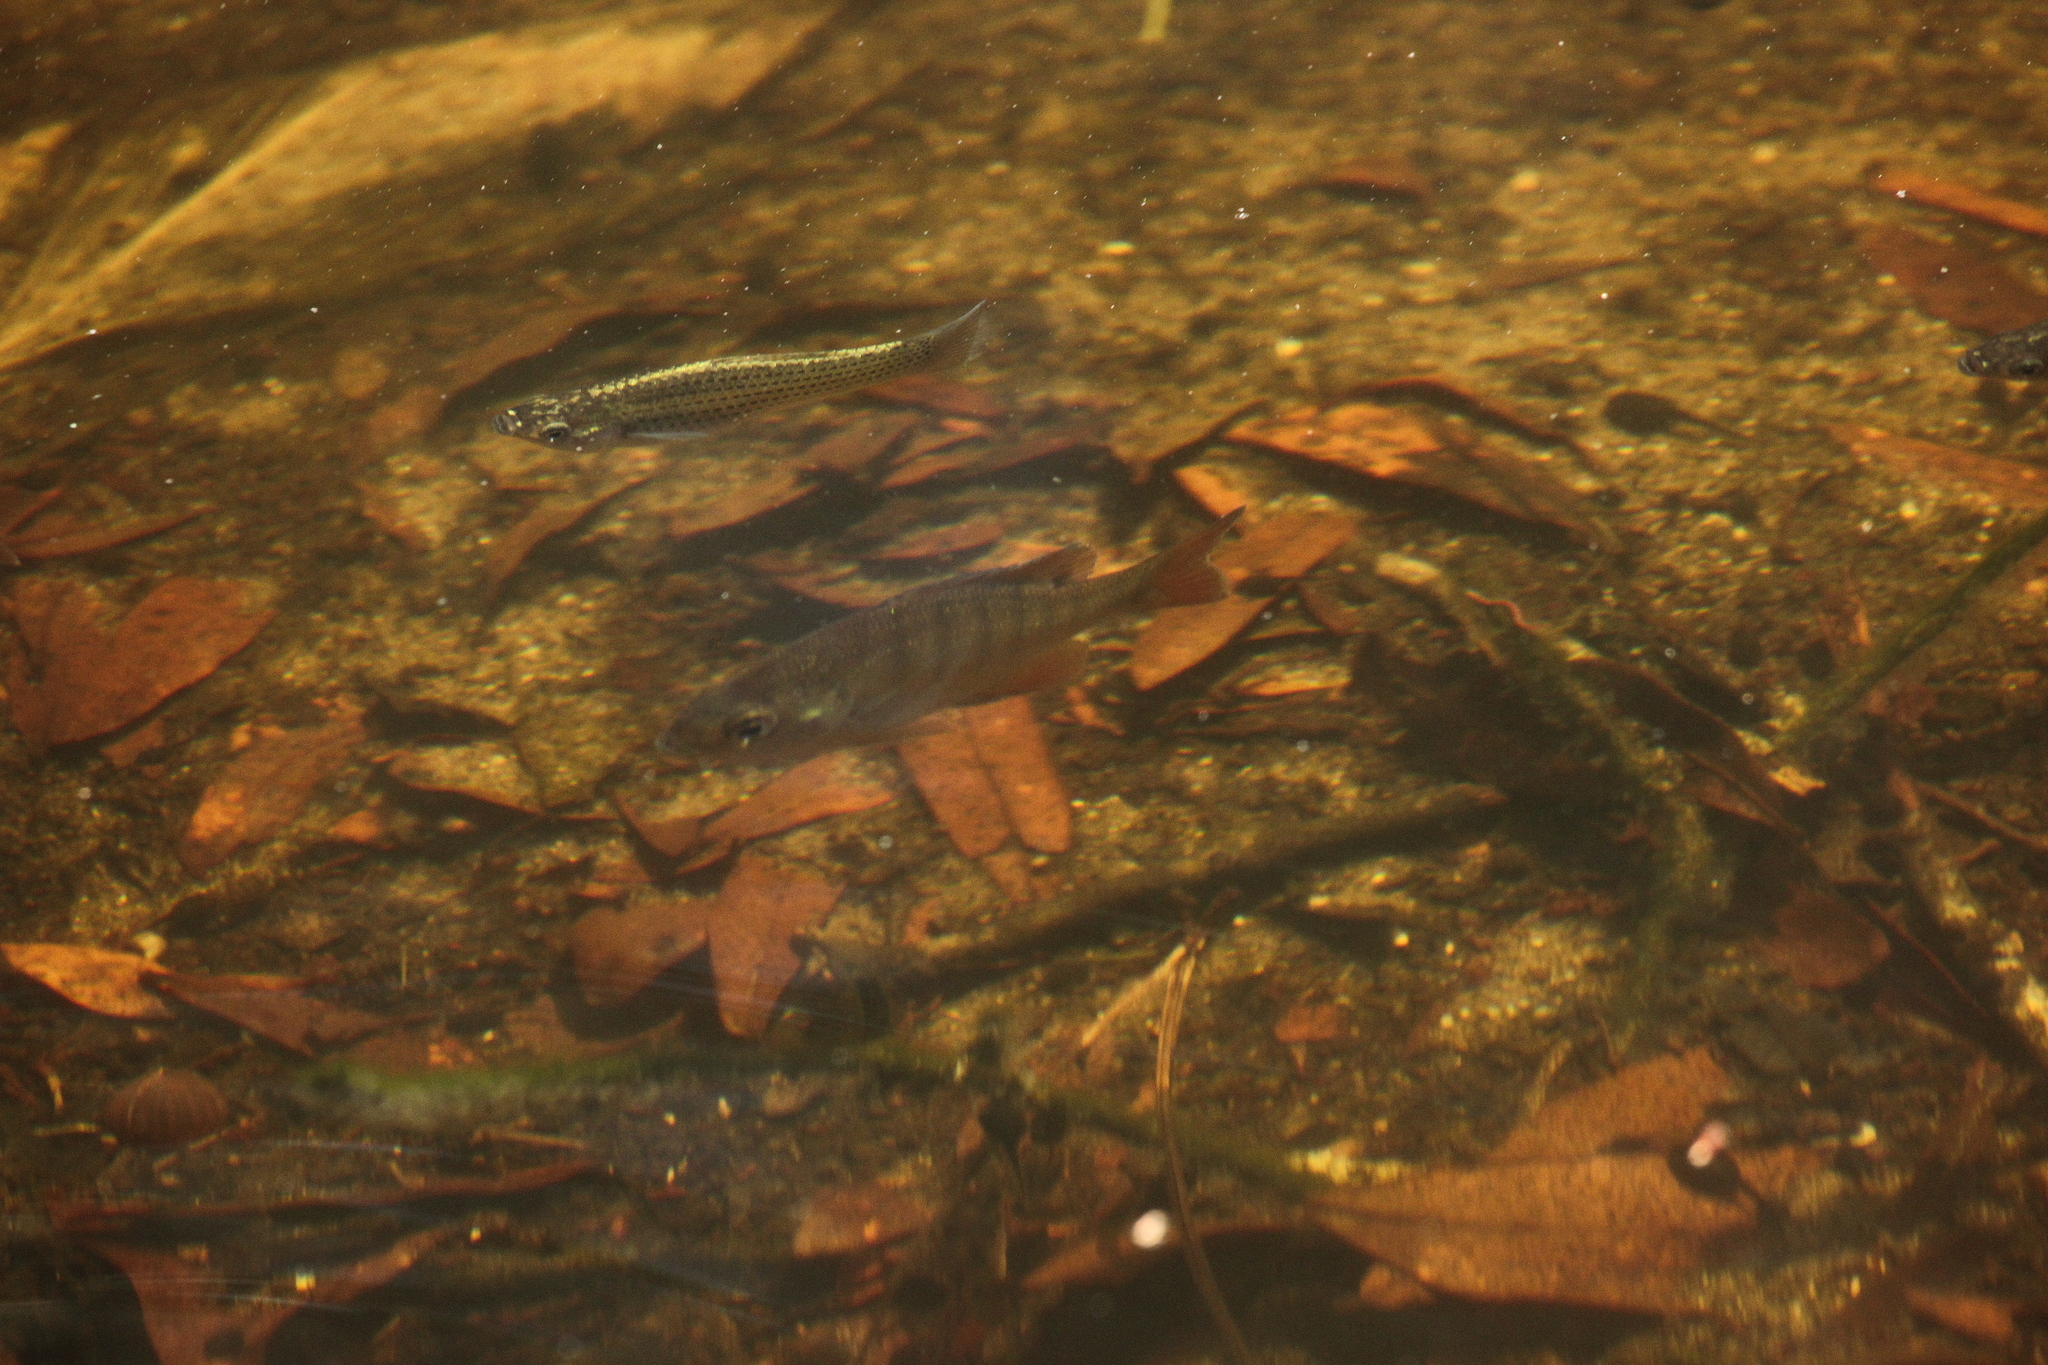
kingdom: Animalia
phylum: Chordata
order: Perciformes
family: Centrarchidae
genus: Lepomis
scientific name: Lepomis macrochirus
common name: Bluegill
